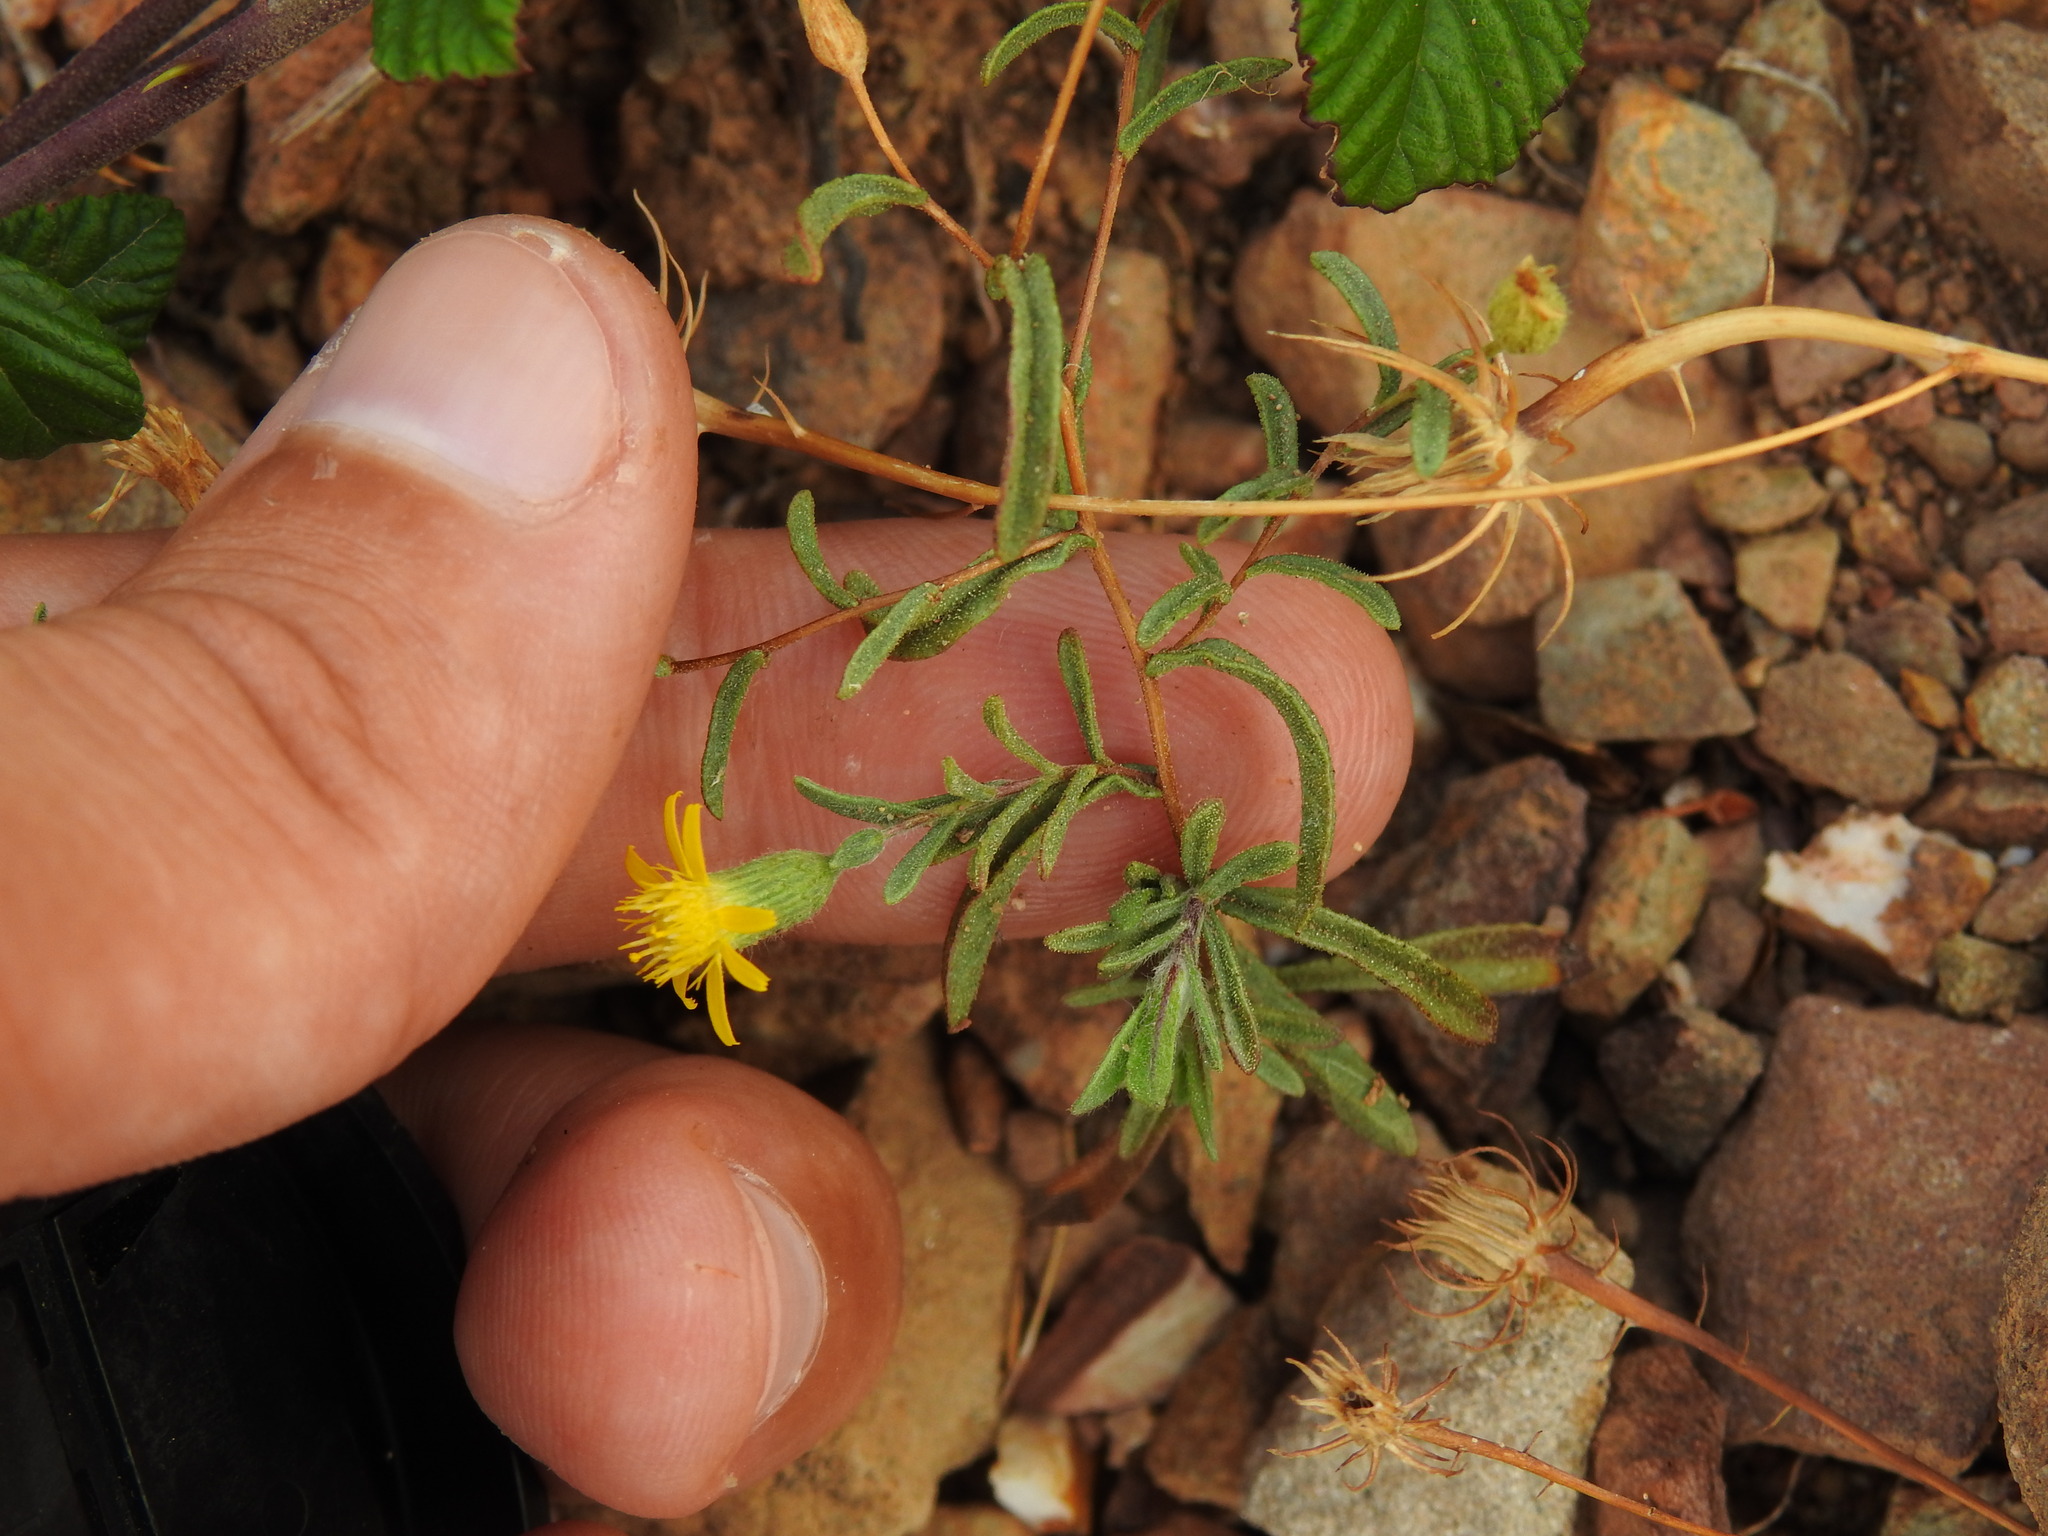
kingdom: Plantae
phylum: Tracheophyta
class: Magnoliopsida
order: Asterales
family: Asteraceae
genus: Pulicaria
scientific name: Pulicaria paludosa
